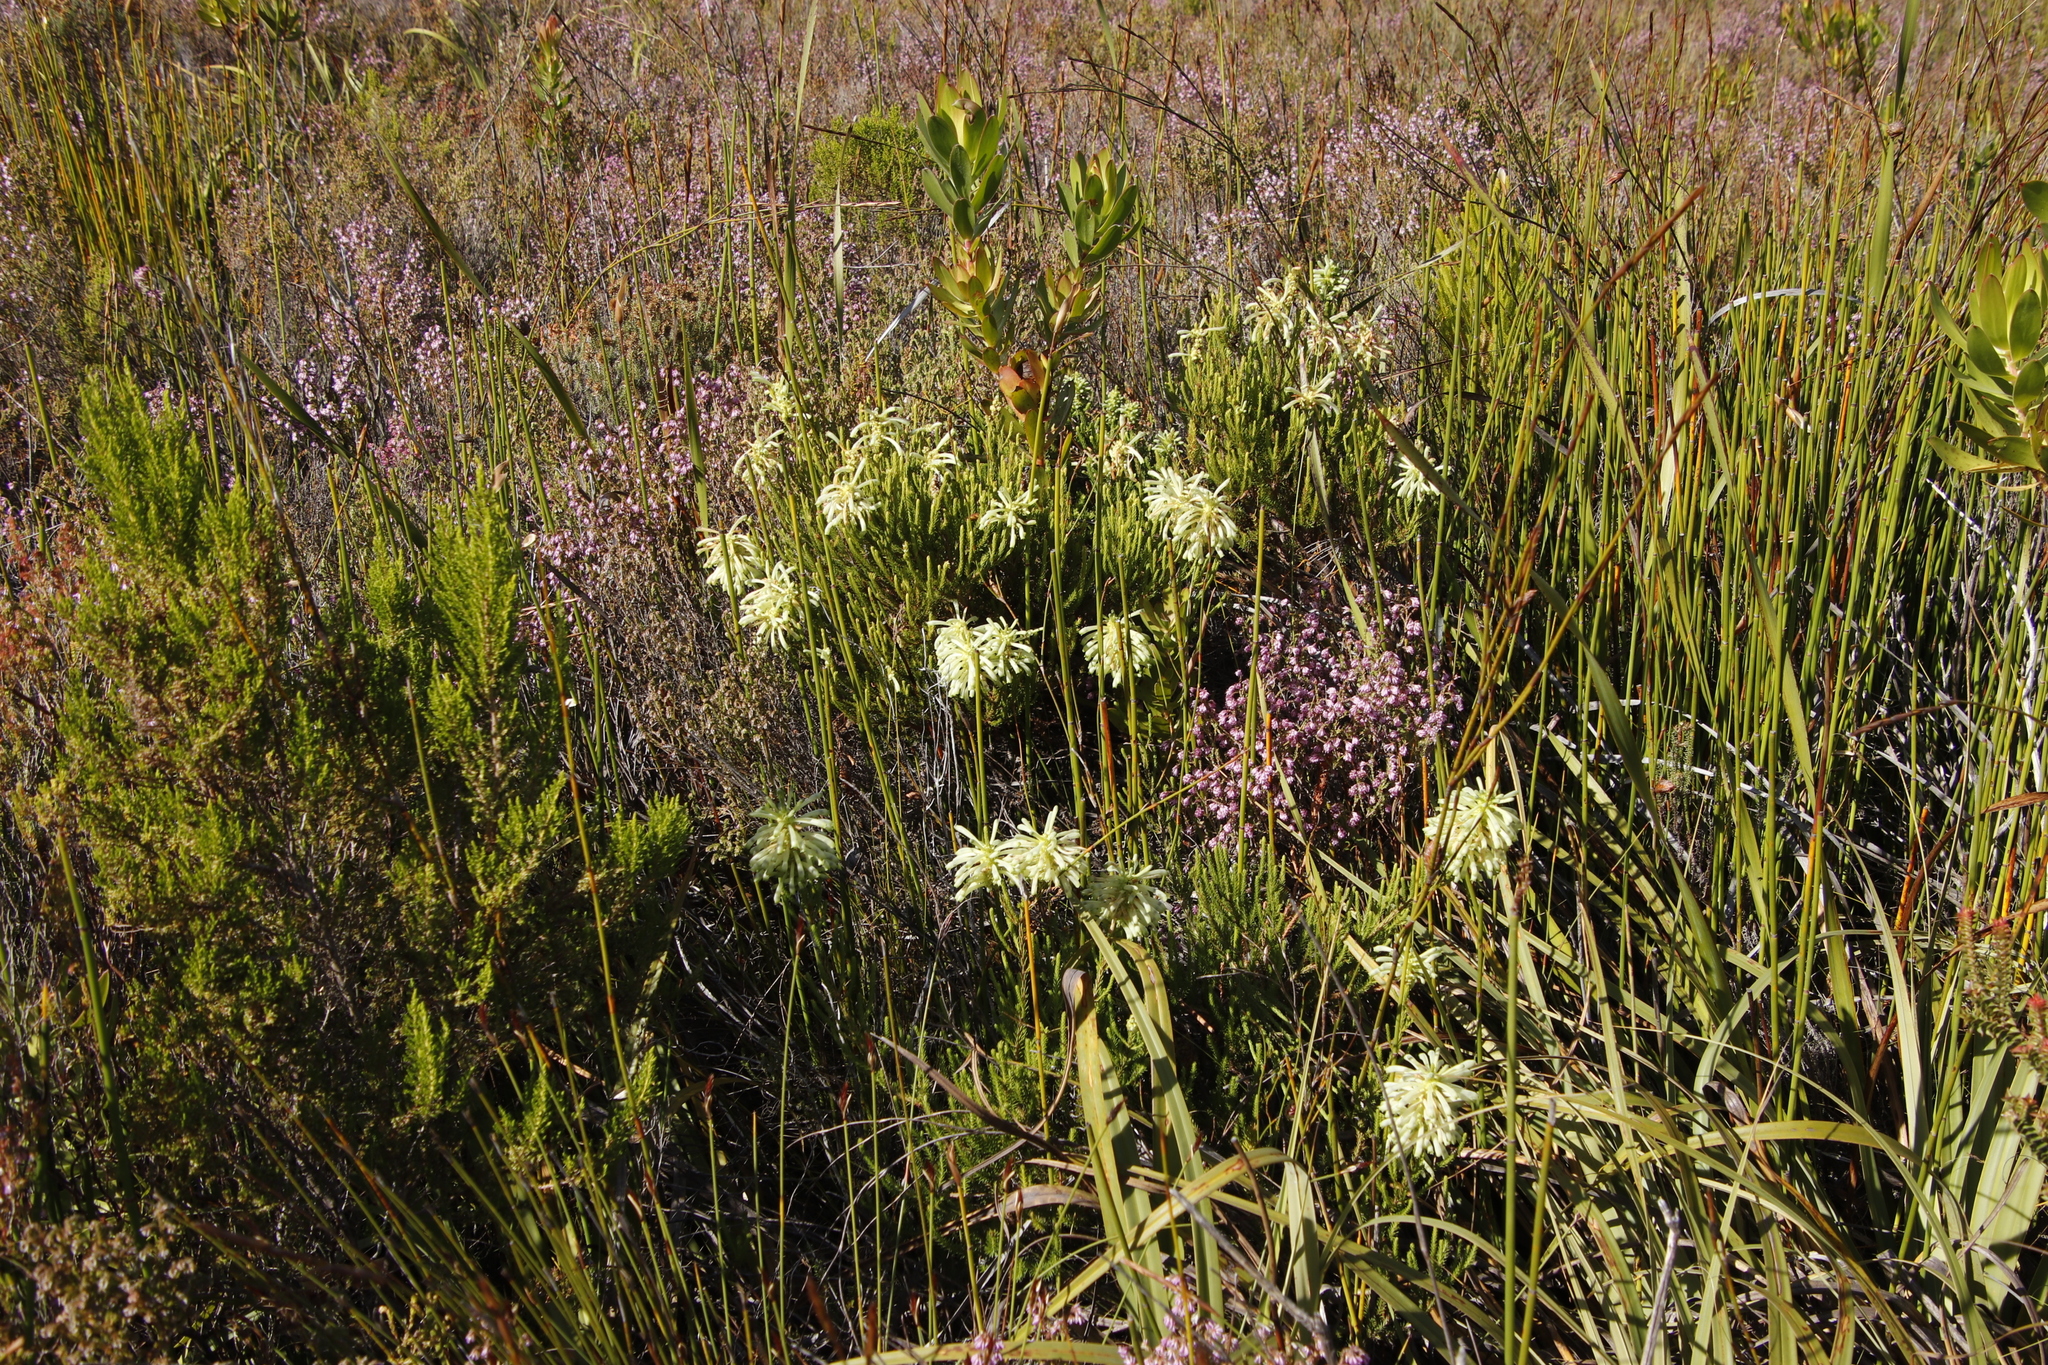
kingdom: Plantae
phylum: Tracheophyta
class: Magnoliopsida
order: Ericales
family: Ericaceae
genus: Erica
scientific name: Erica sessiliflora
